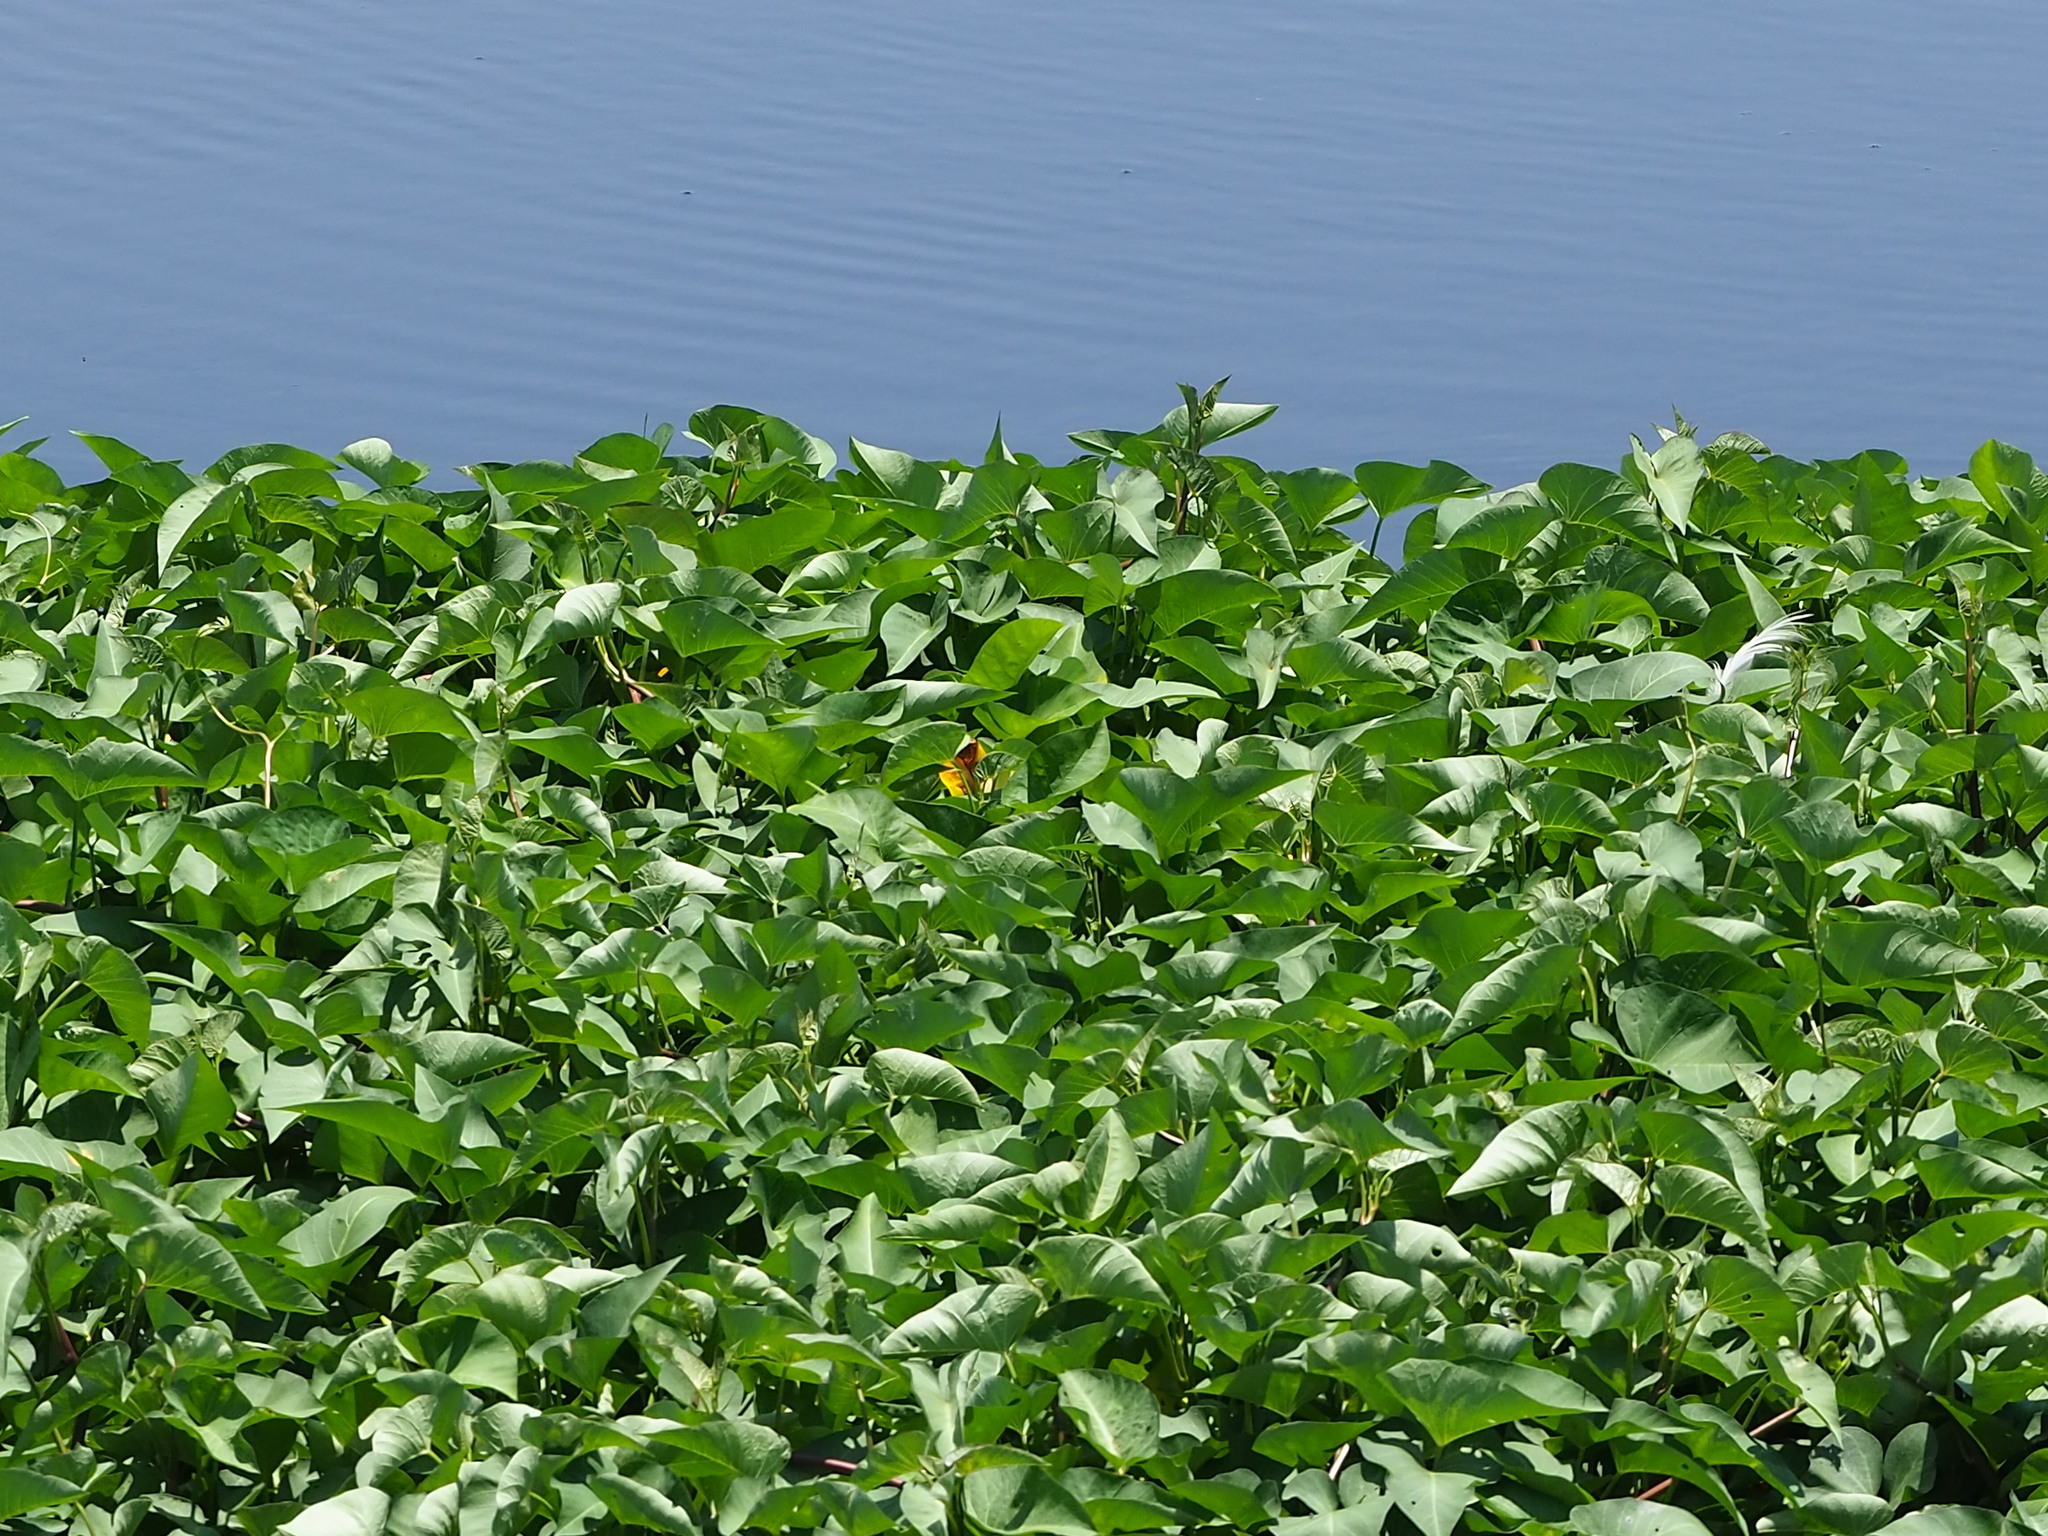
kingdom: Plantae
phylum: Tracheophyta
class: Magnoliopsida
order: Solanales
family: Convolvulaceae
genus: Ipomoea
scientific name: Ipomoea aquatica
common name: Swamp morning-glory
